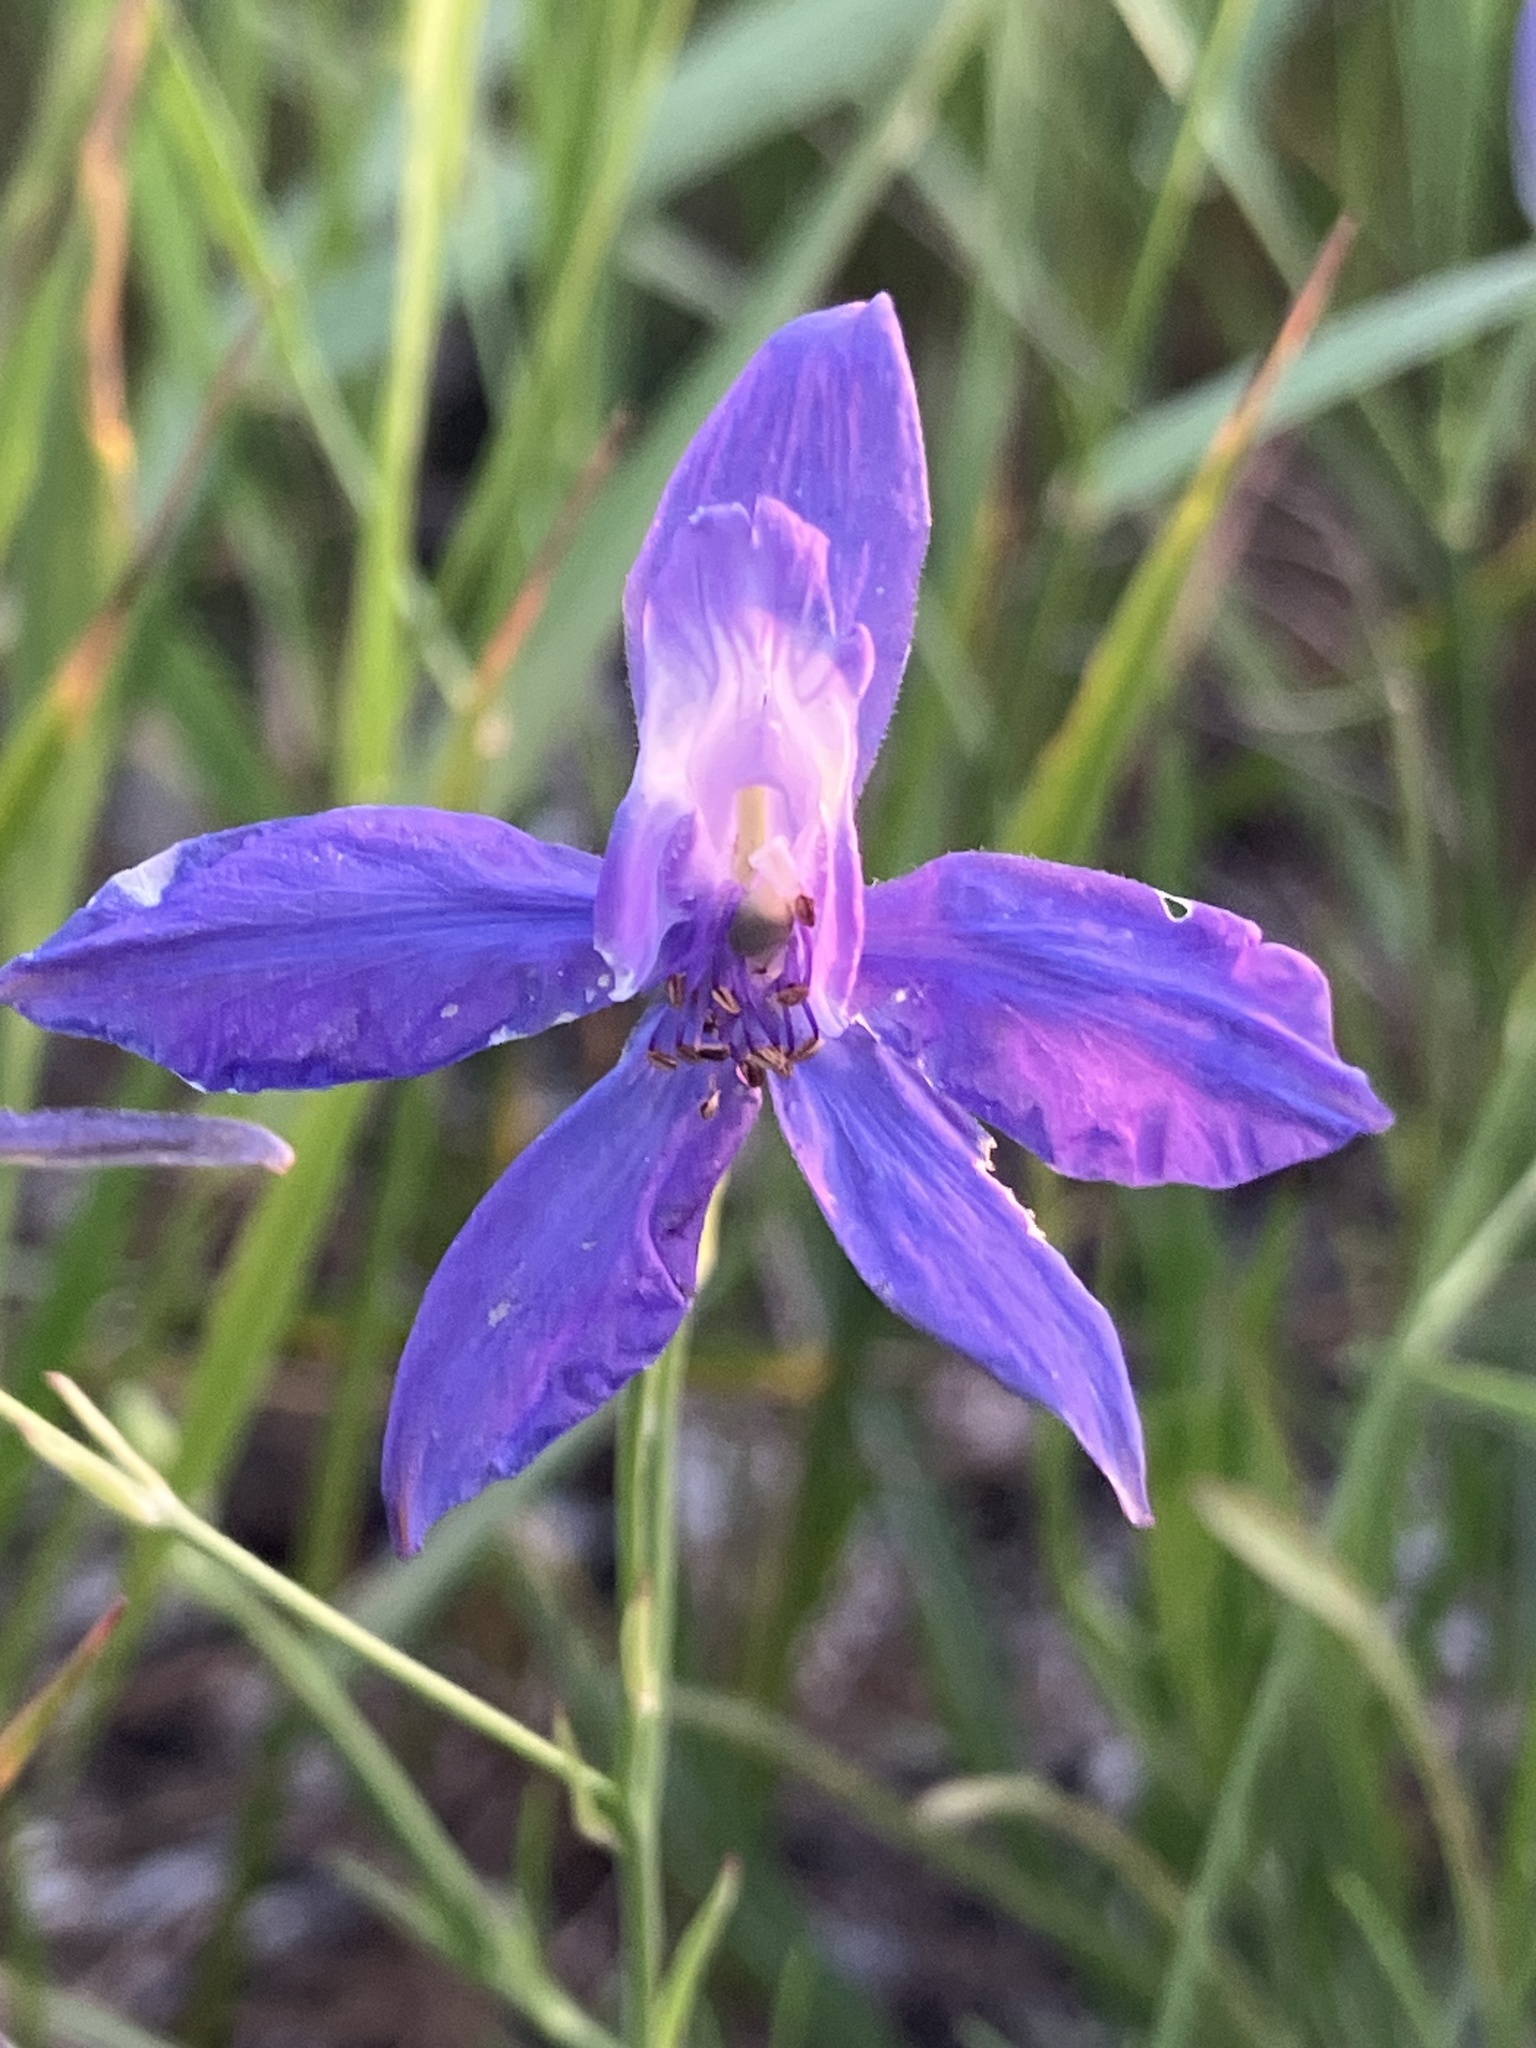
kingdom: Plantae
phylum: Tracheophyta
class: Magnoliopsida
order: Ranunculales
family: Ranunculaceae
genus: Delphinium
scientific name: Delphinium consolida
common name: Branching larkspur
